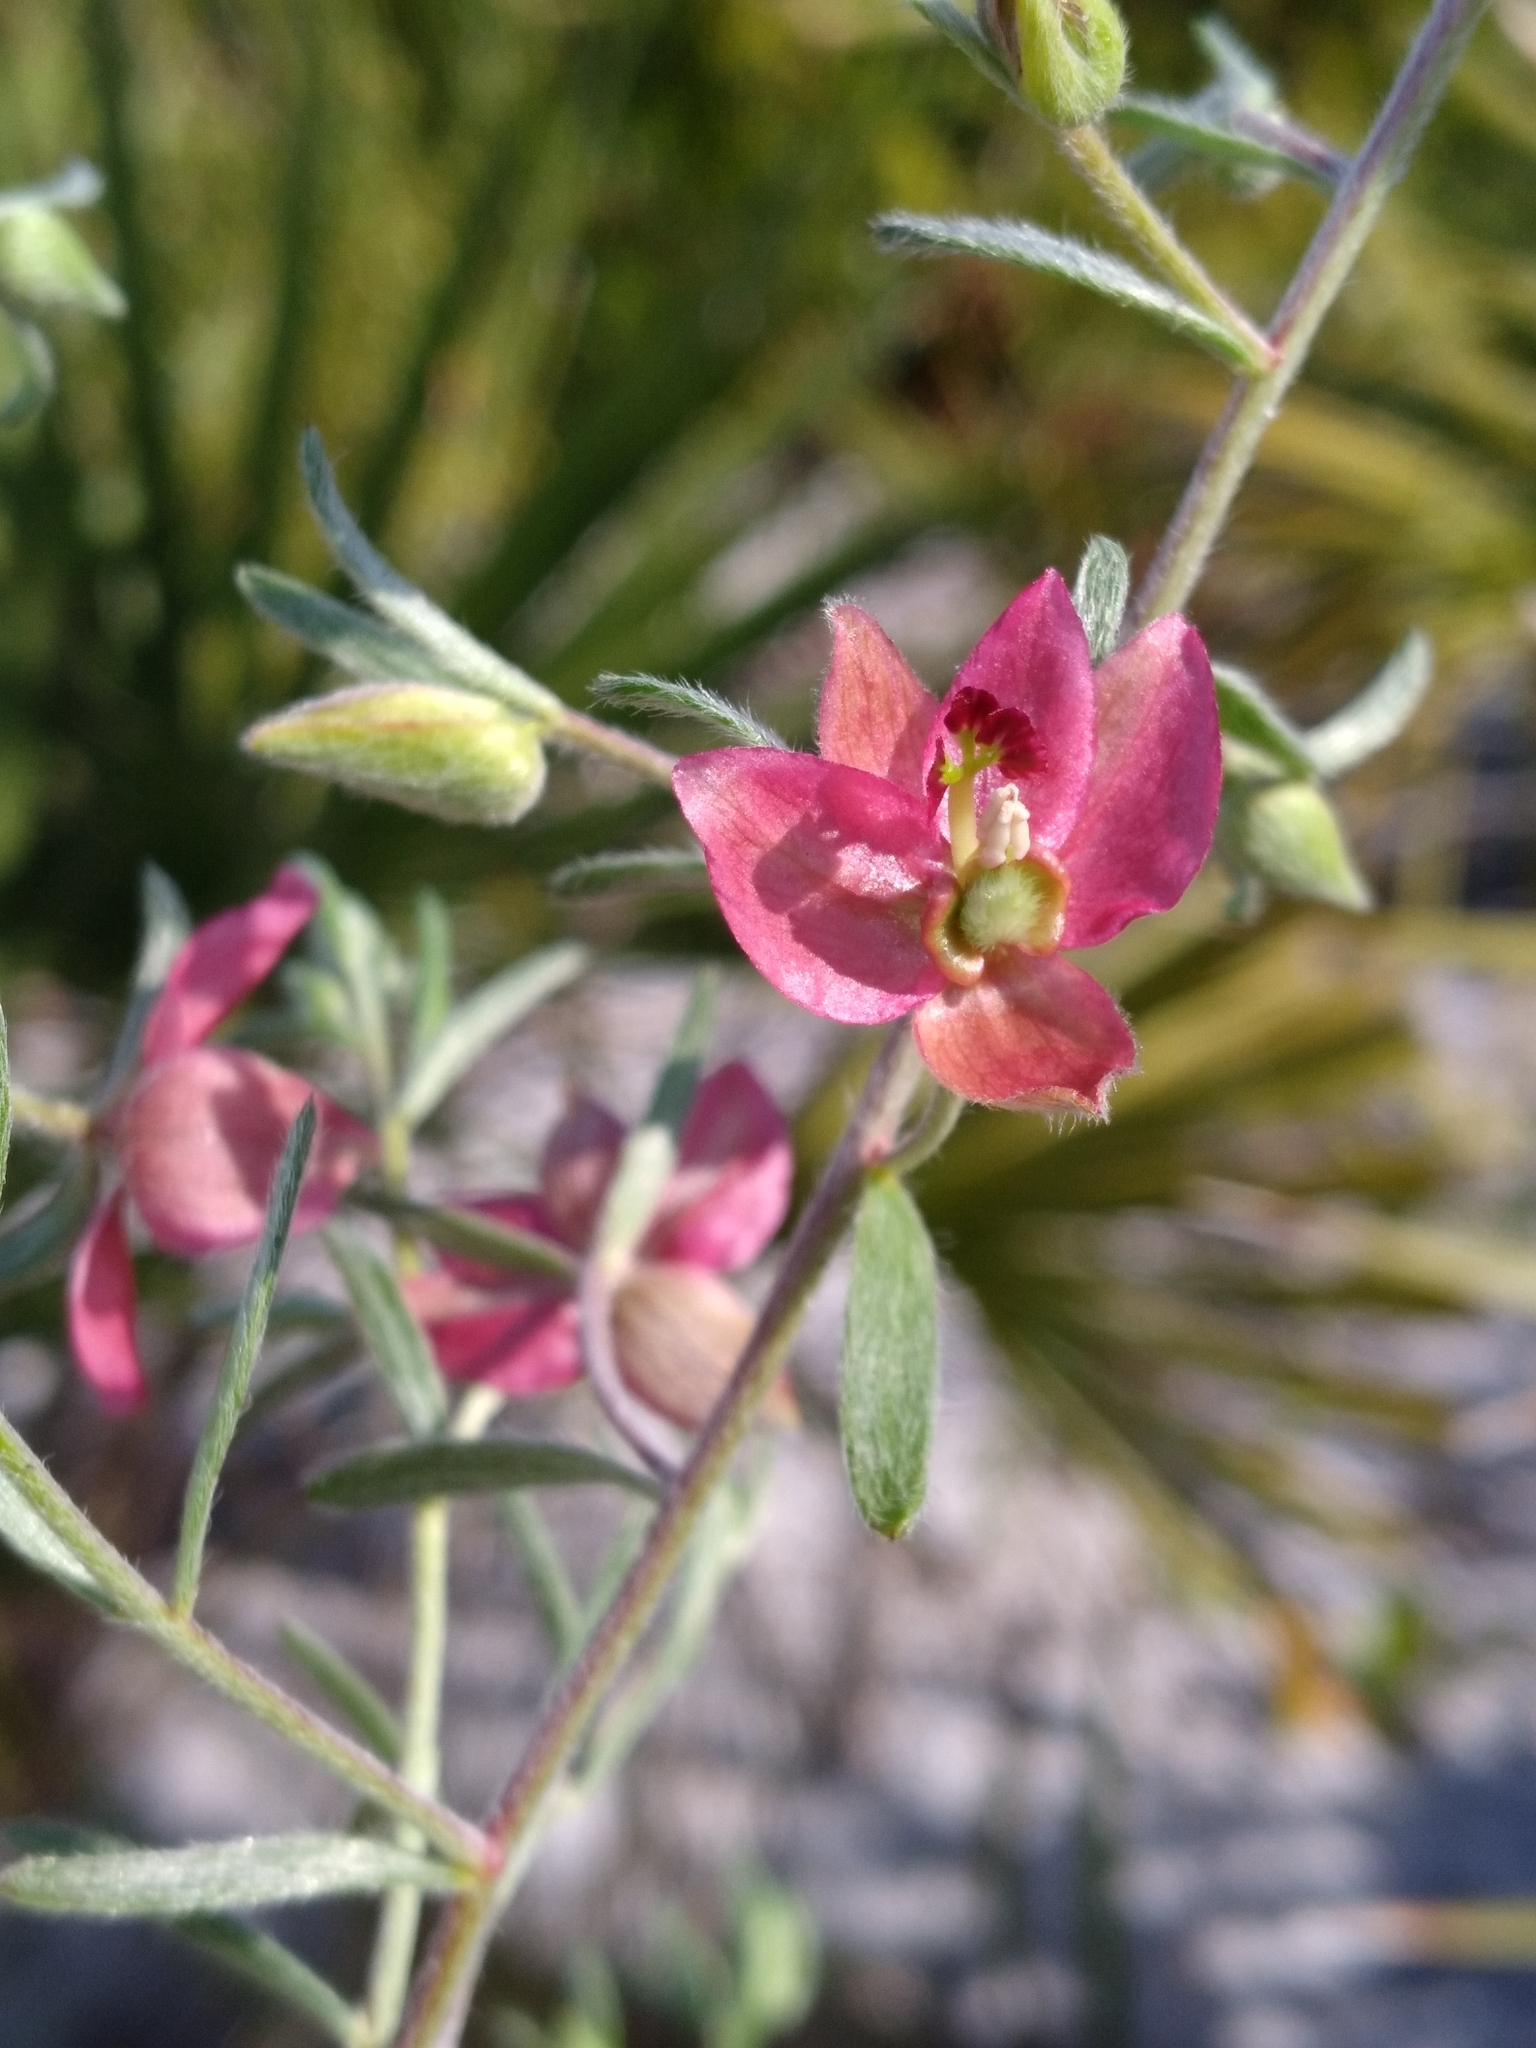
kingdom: Plantae
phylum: Tracheophyta
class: Magnoliopsida
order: Zygophyllales
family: Krameriaceae
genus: Krameria
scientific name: Krameria lanceolata
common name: Ratany
